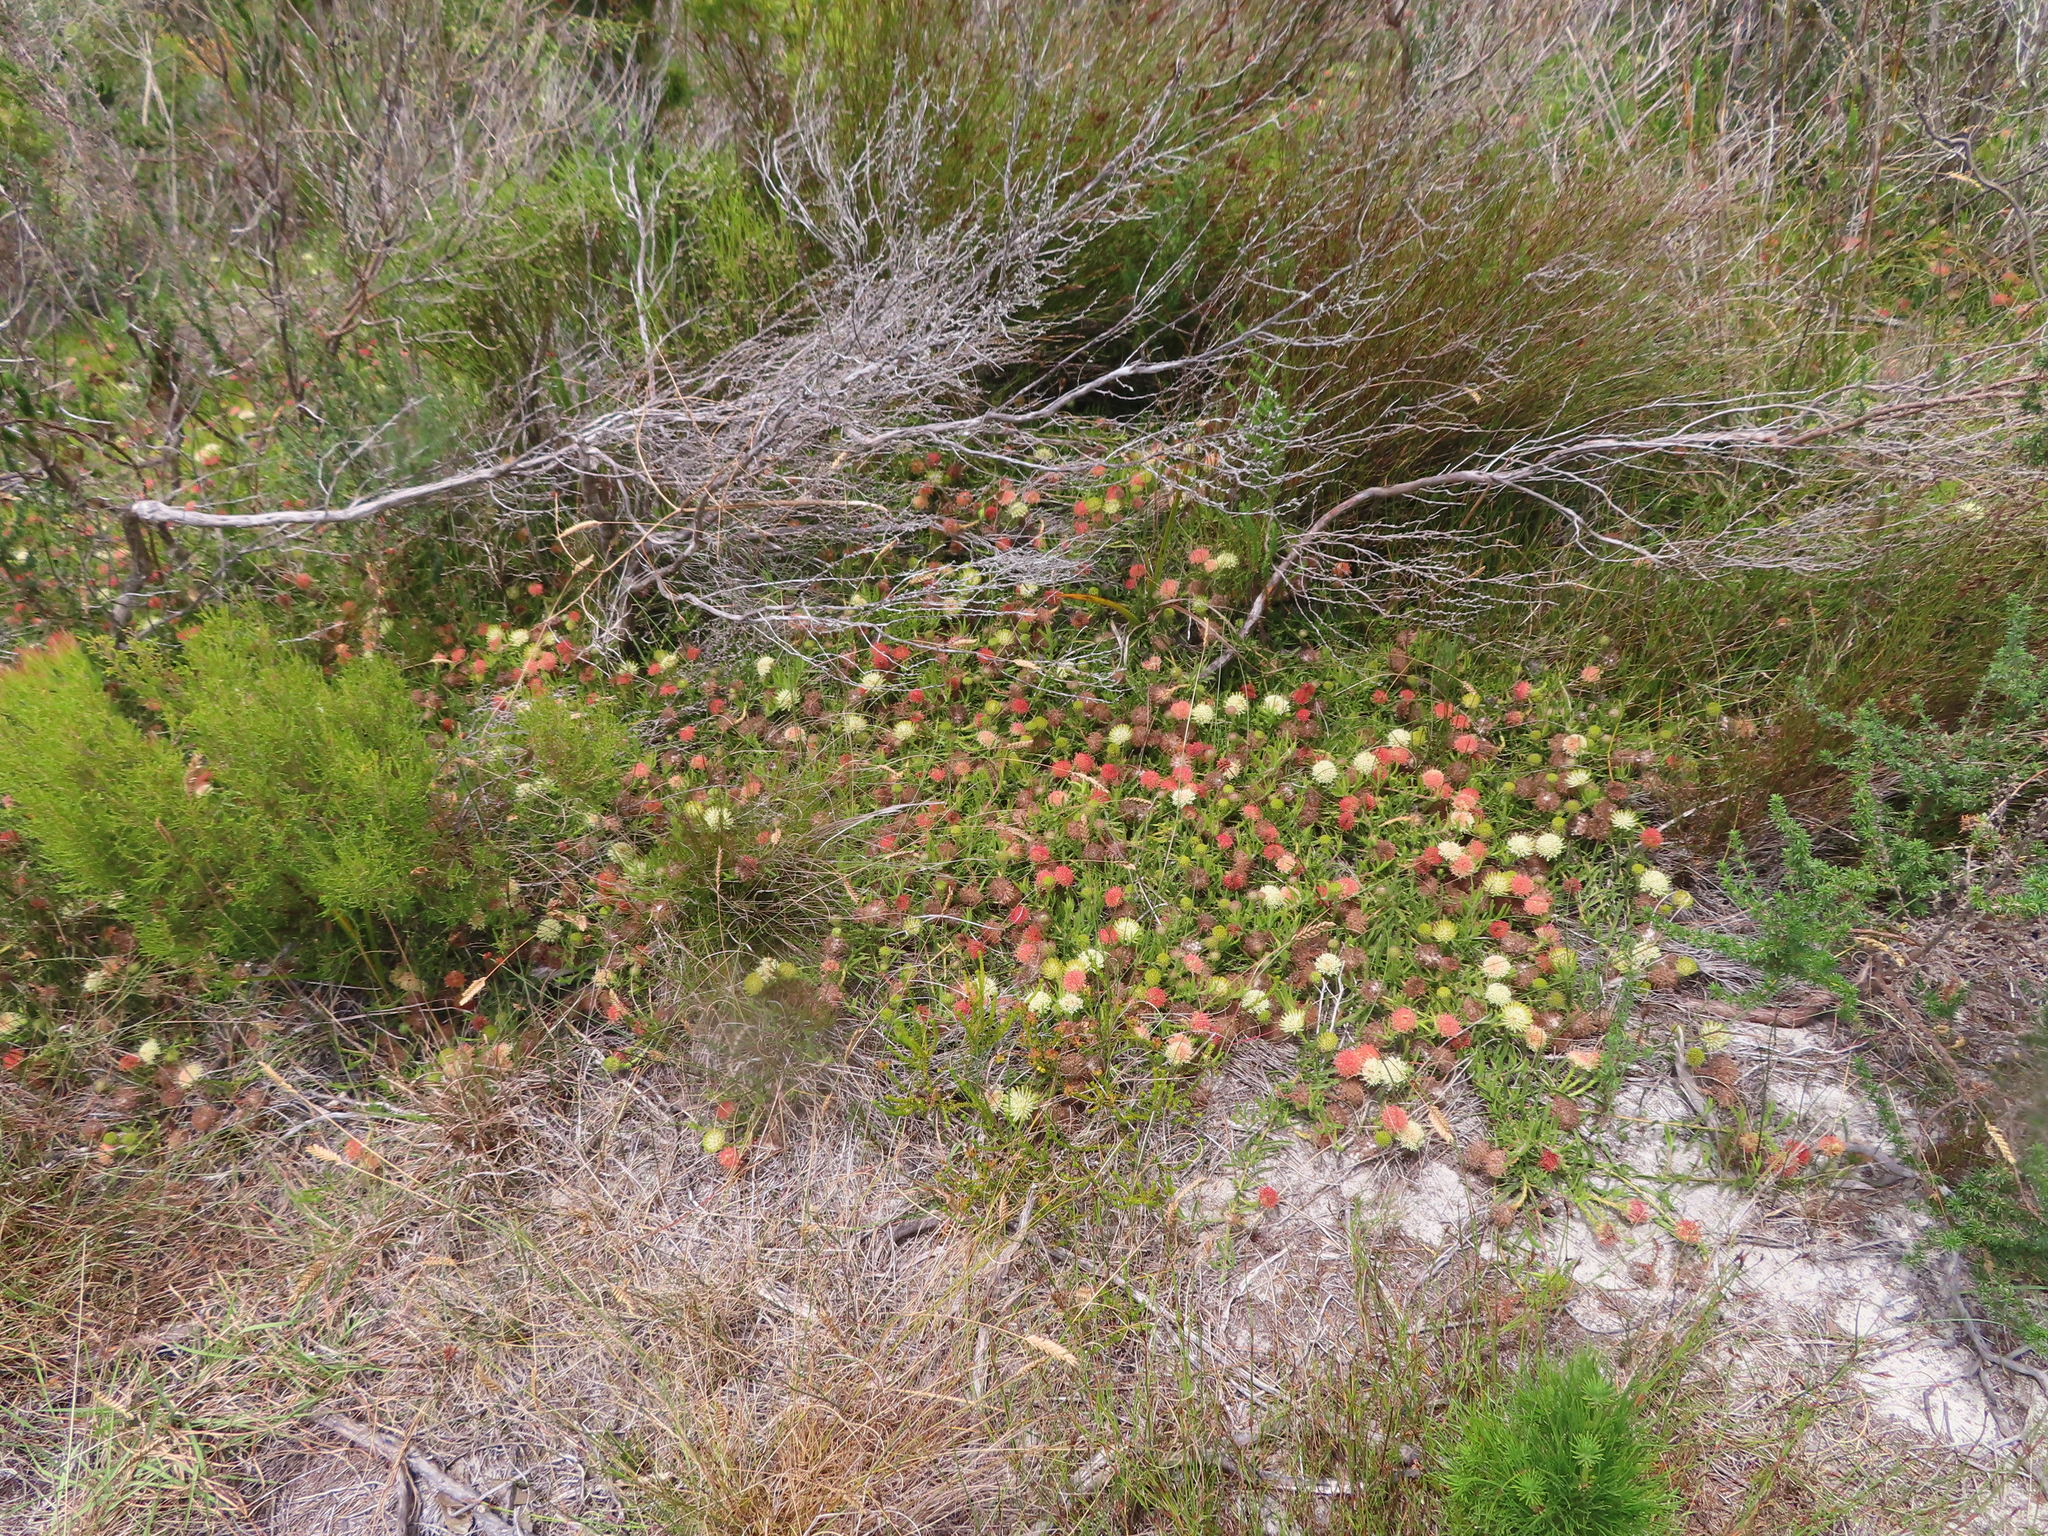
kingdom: Plantae
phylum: Tracheophyta
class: Magnoliopsida
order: Proteales
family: Proteaceae
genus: Leucospermum
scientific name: Leucospermum pedunculatum
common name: White-trailing pincushion
